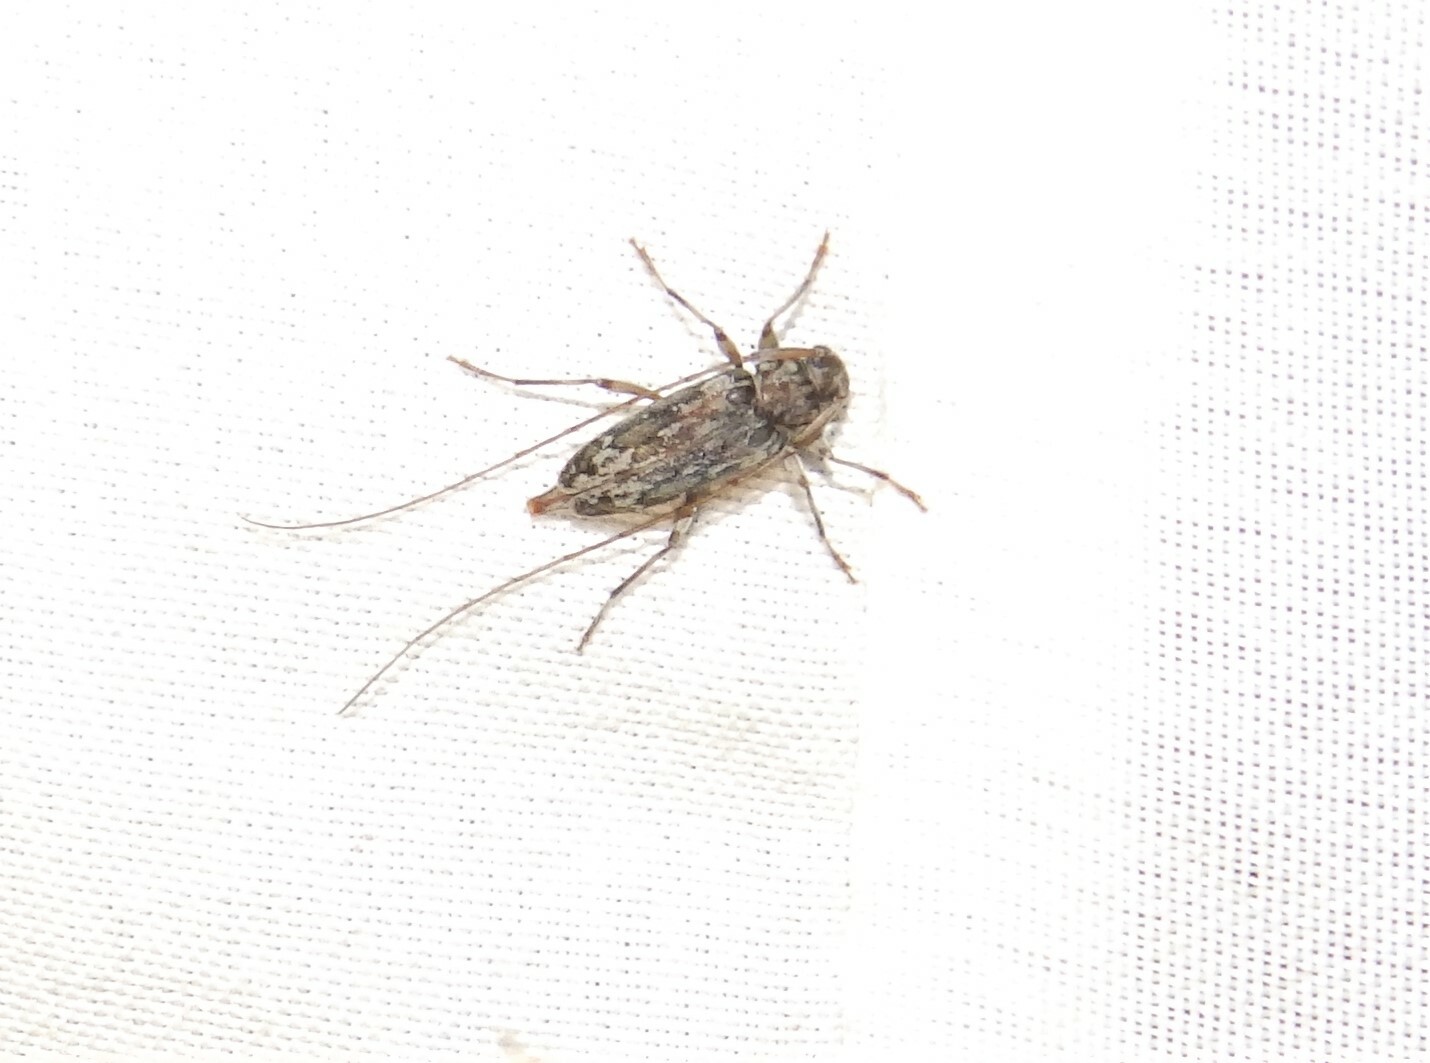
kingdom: Animalia
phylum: Arthropoda
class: Insecta
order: Coleoptera
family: Cerambycidae
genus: Lepturges
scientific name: Lepturges confluens
